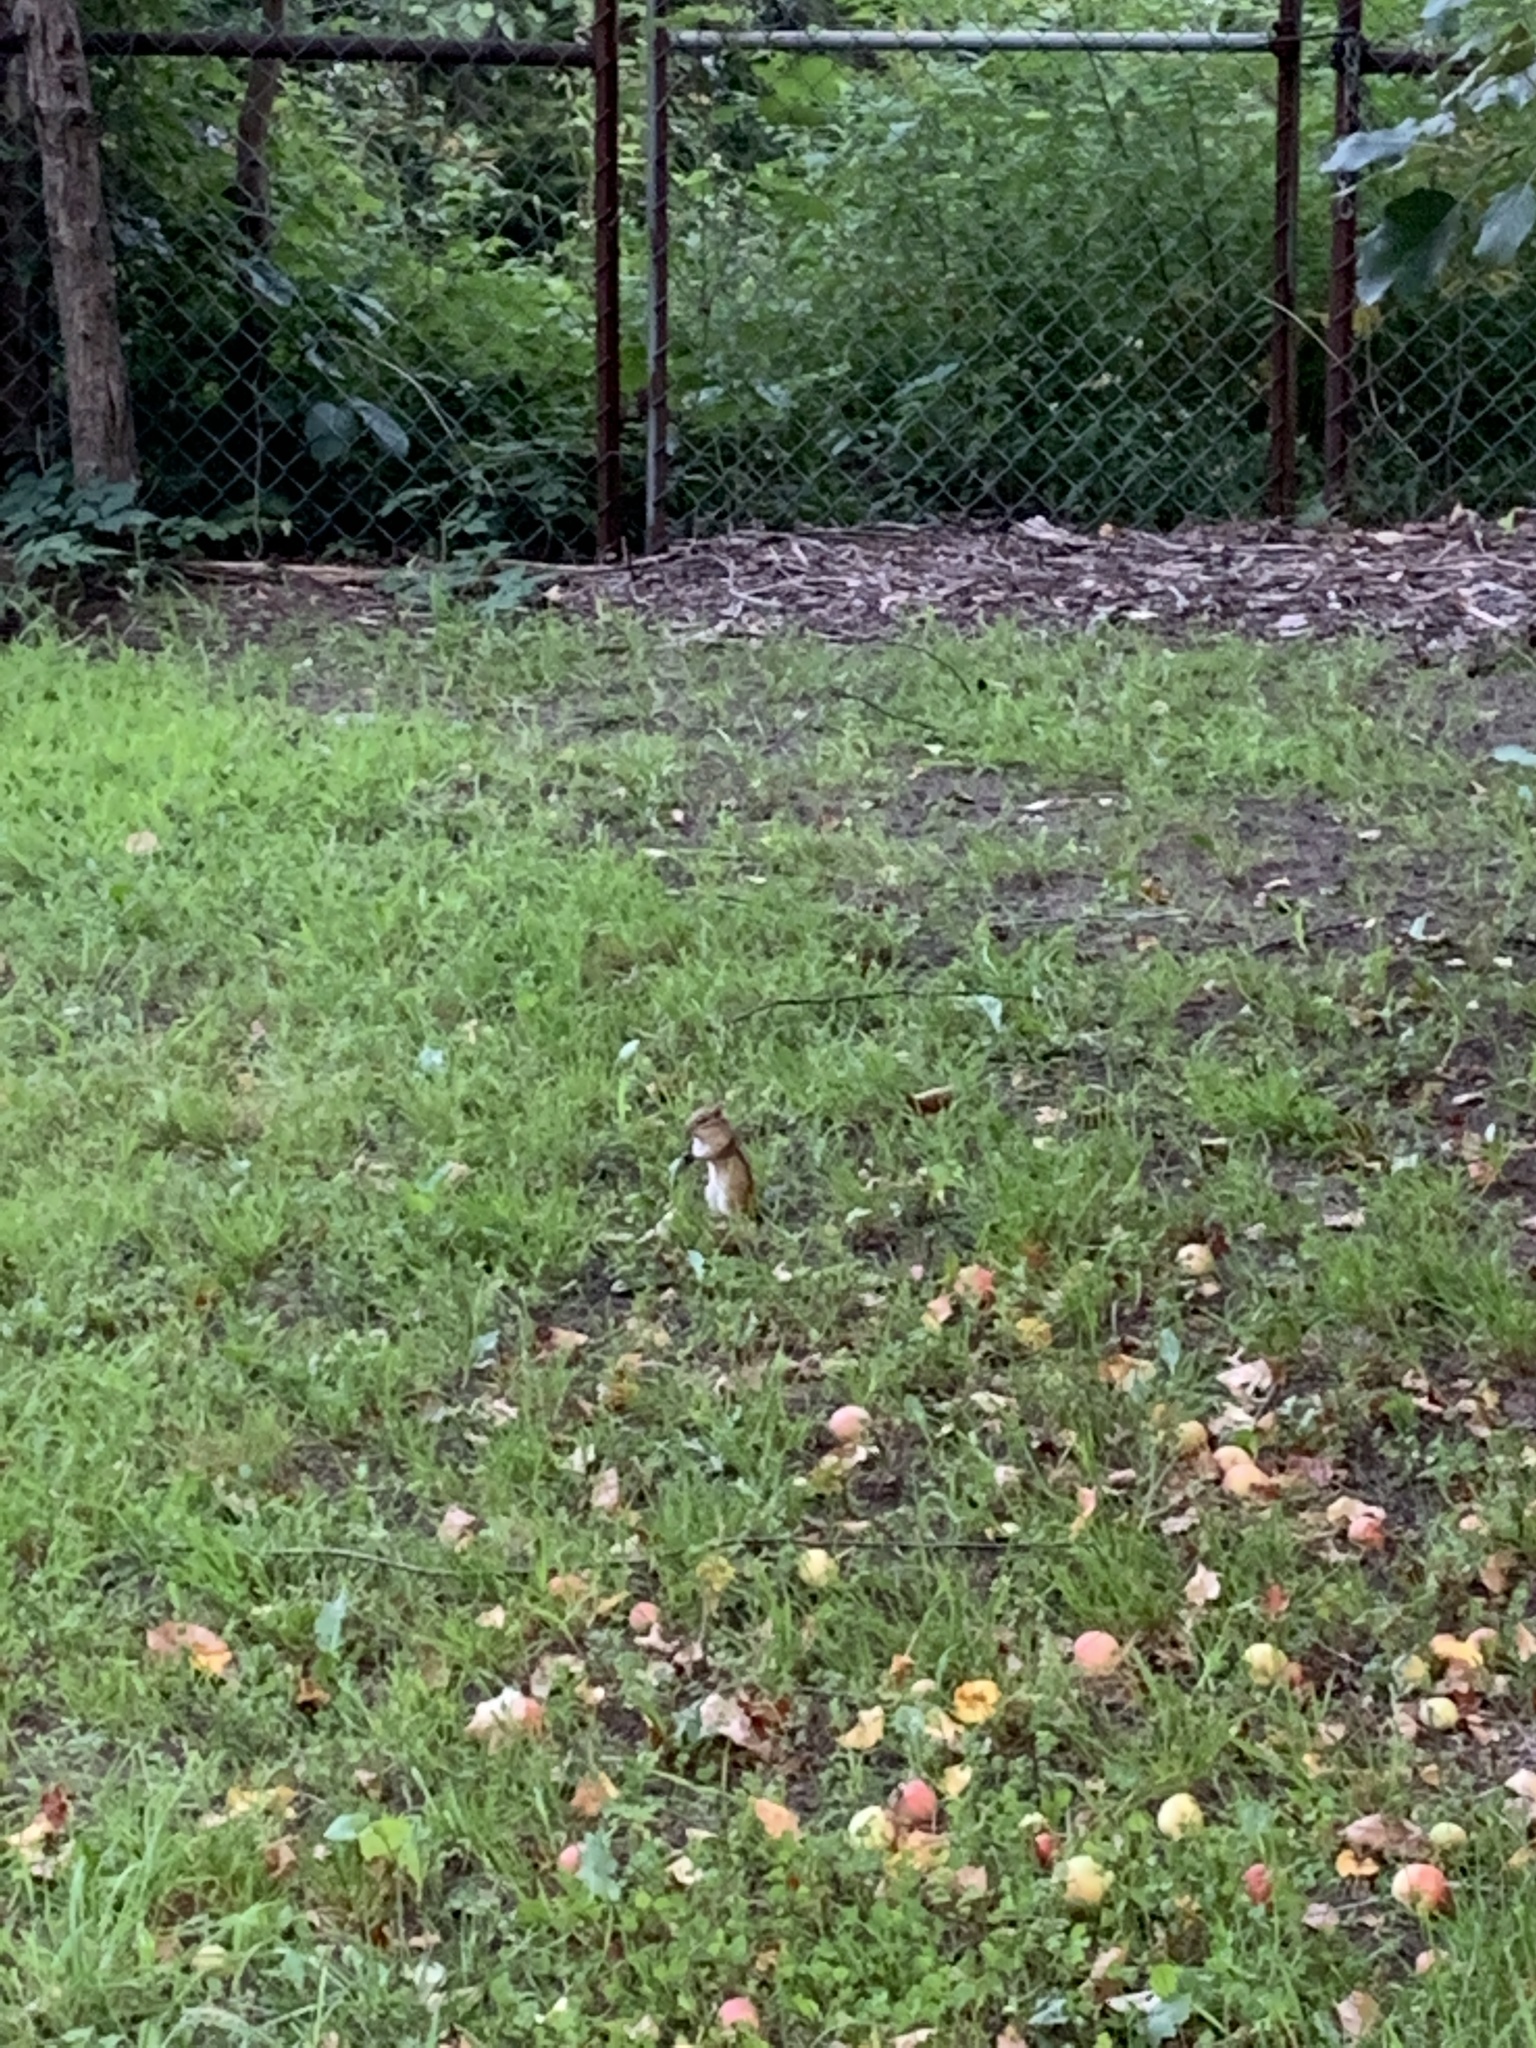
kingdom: Animalia
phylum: Chordata
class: Mammalia
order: Rodentia
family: Sciuridae
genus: Tamias
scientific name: Tamias striatus
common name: Eastern chipmunk
